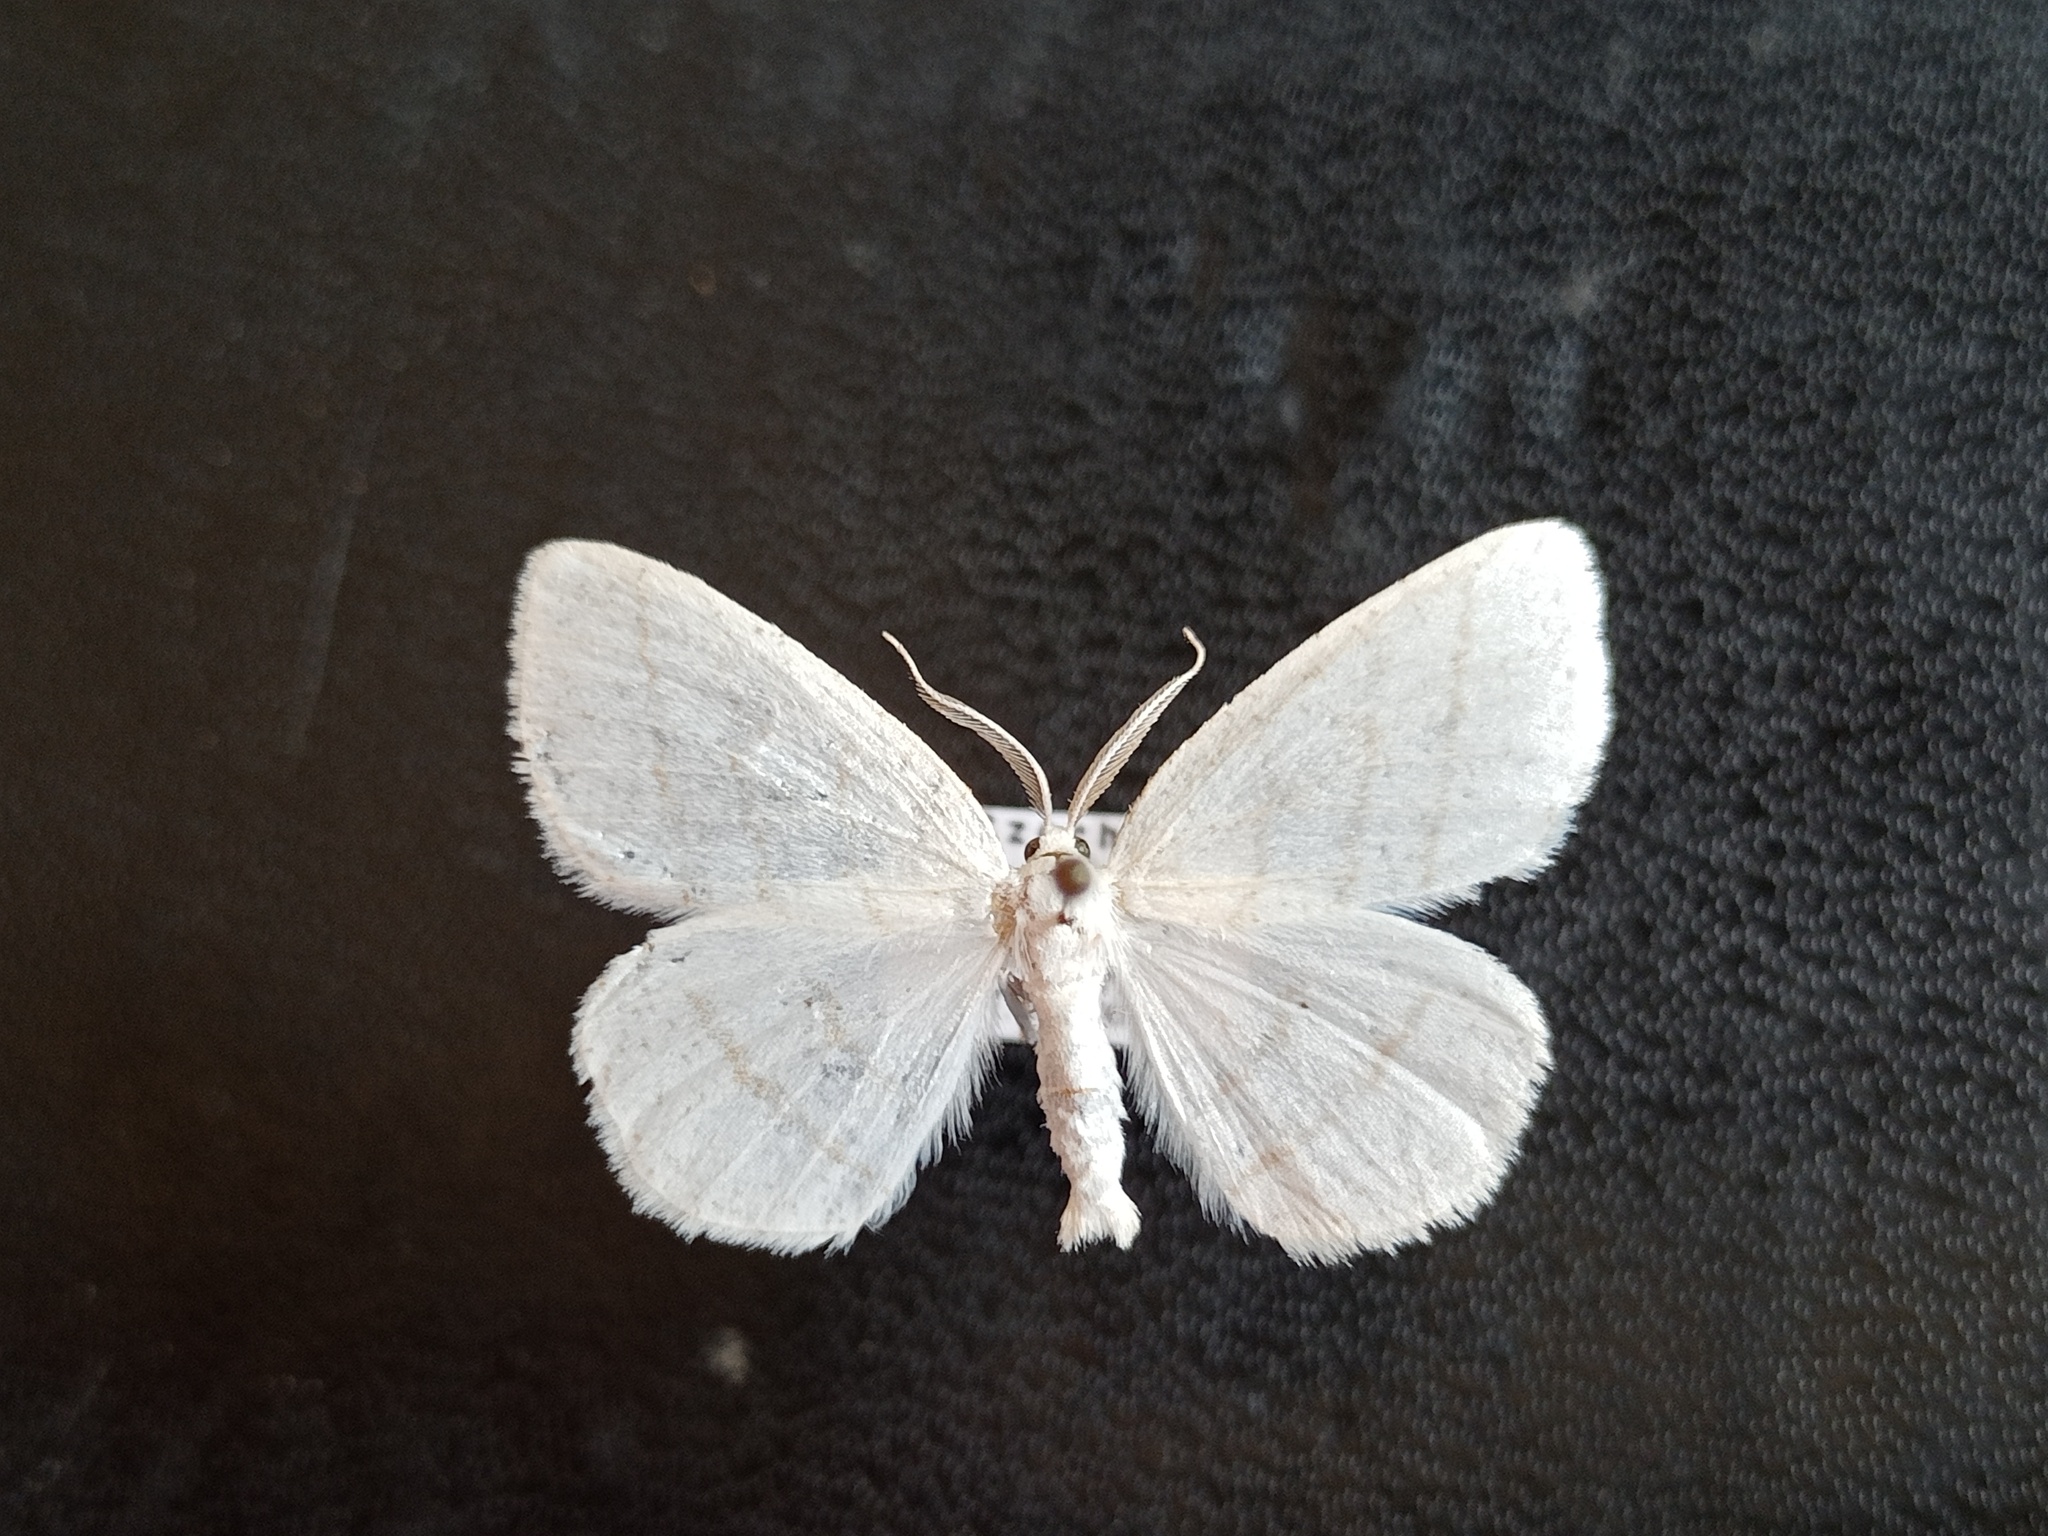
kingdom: Animalia
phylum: Arthropoda
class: Insecta
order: Lepidoptera
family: Geometridae
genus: Cabera
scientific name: Cabera pusaria
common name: Common white wave
